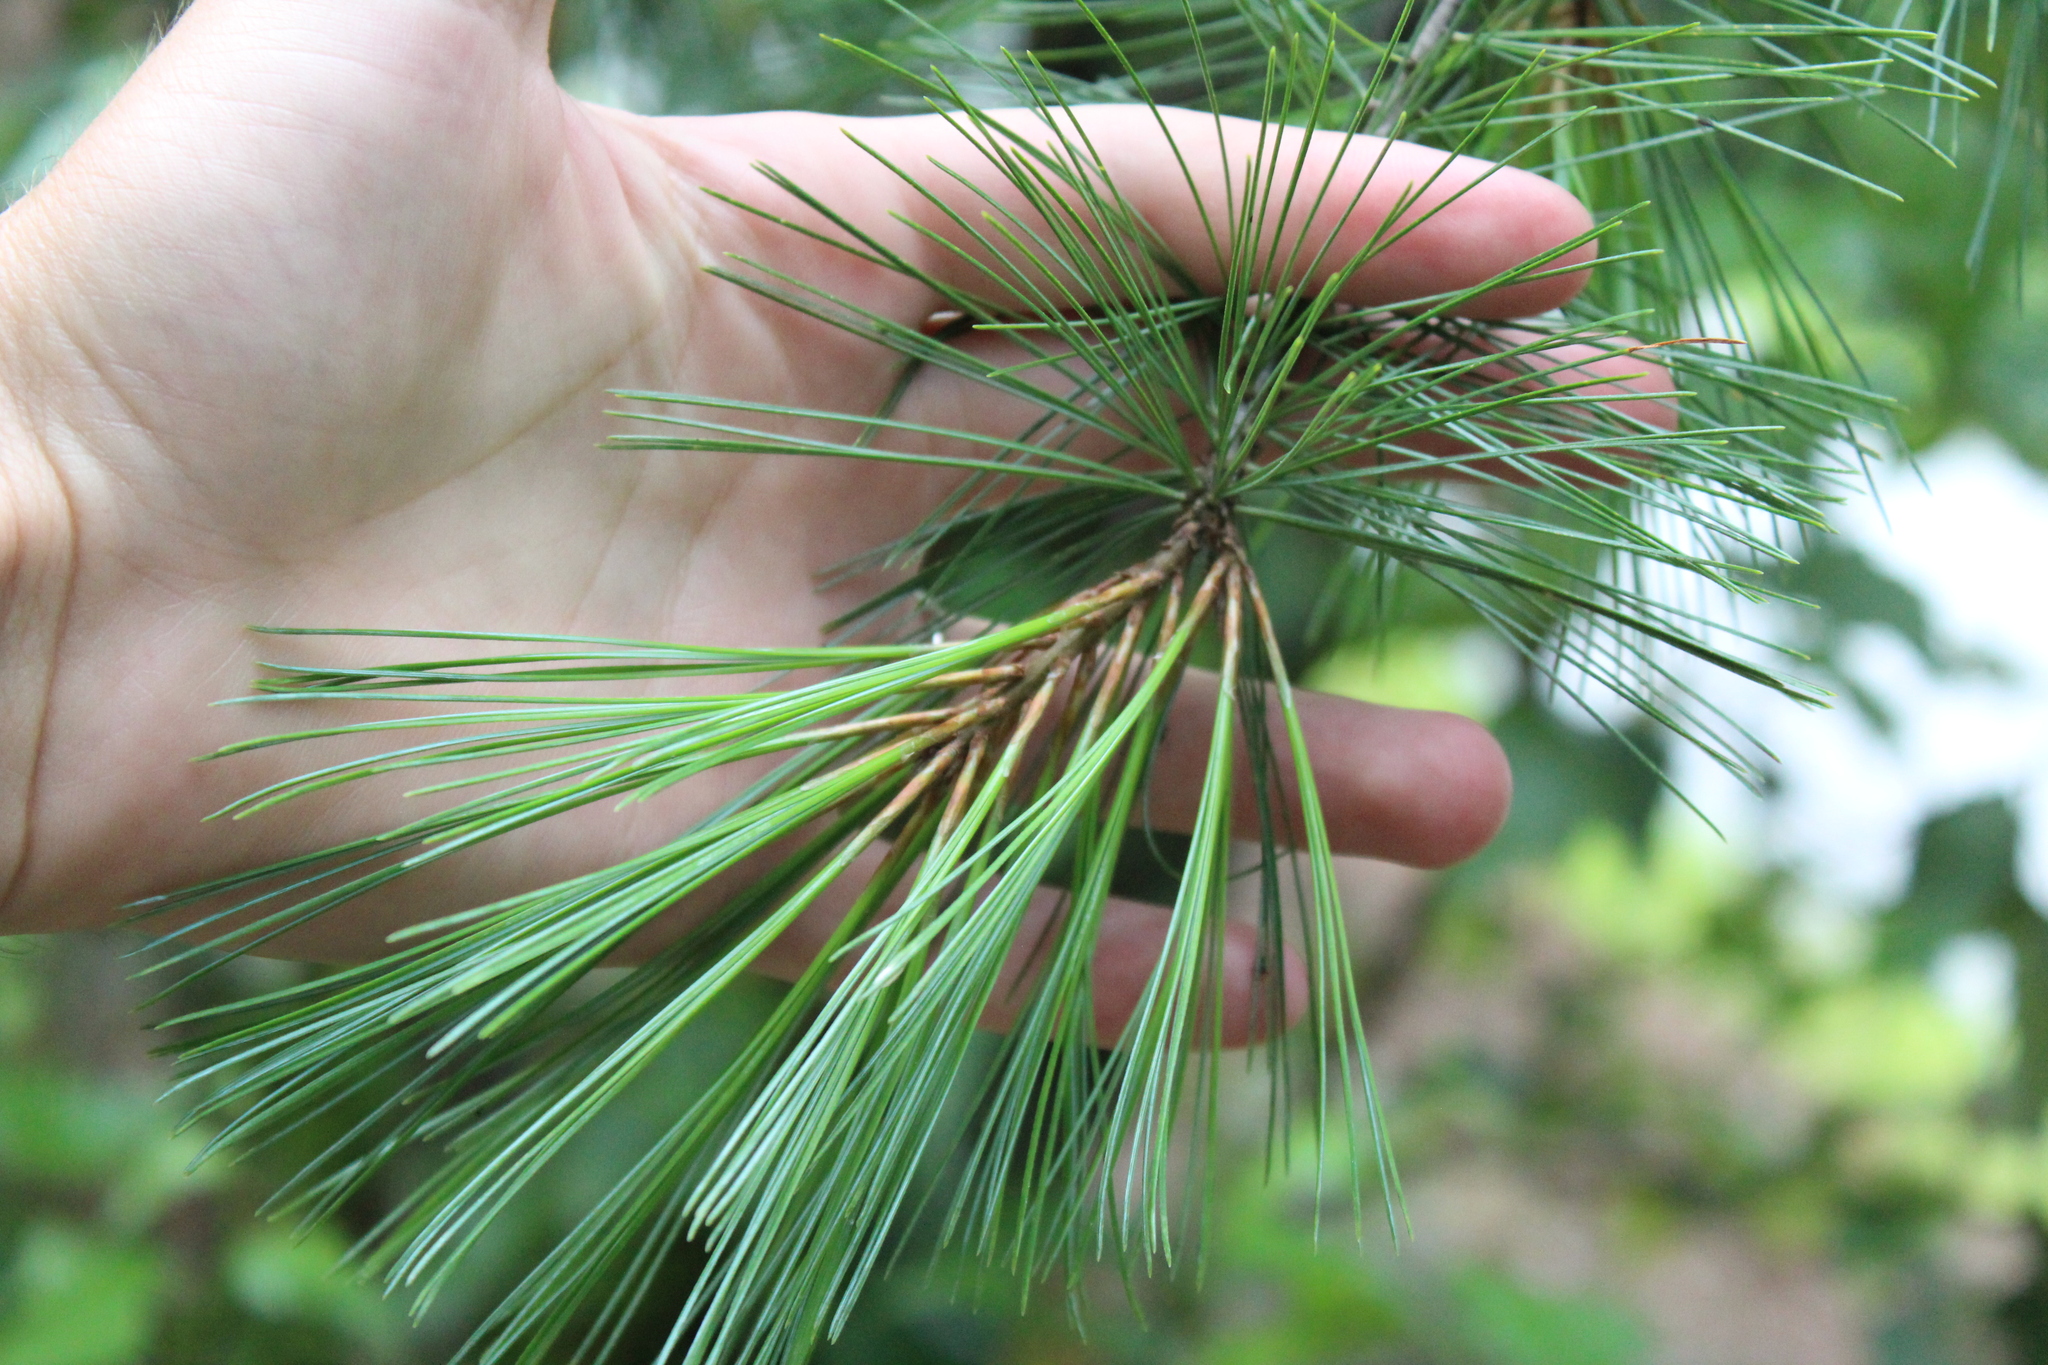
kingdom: Plantae
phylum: Tracheophyta
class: Pinopsida
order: Pinales
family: Pinaceae
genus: Pinus
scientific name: Pinus strobus
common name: Weymouth pine
